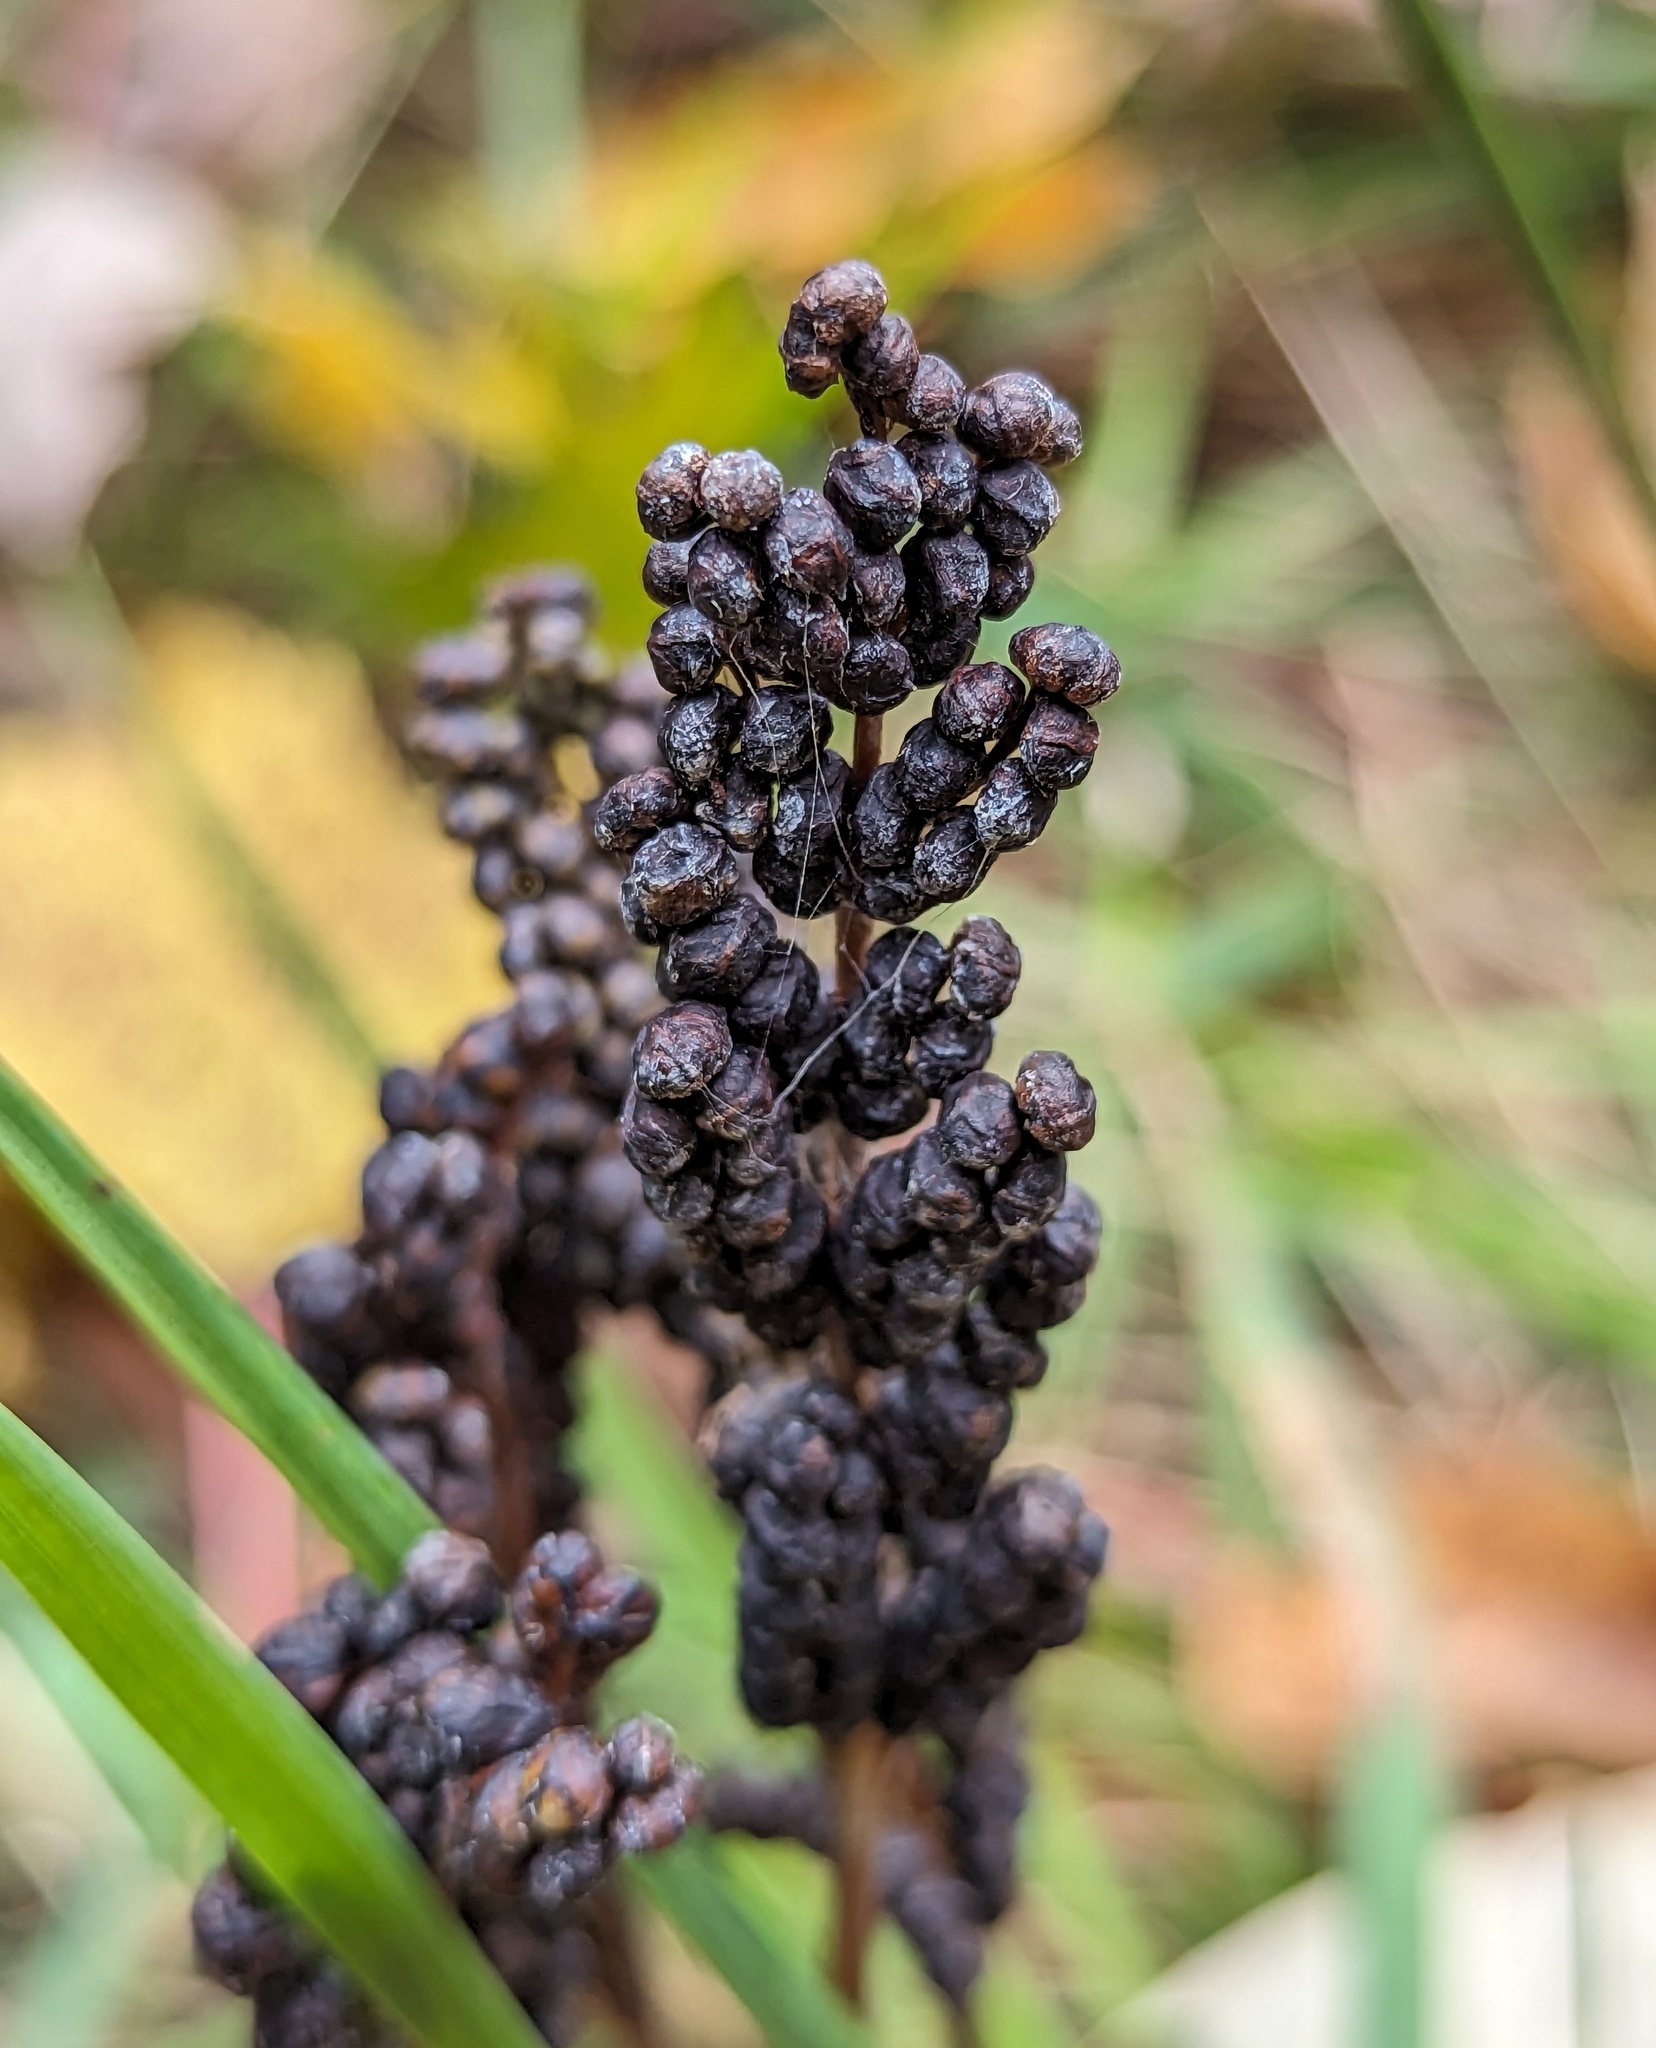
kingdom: Plantae
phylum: Tracheophyta
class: Polypodiopsida
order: Polypodiales
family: Onocleaceae
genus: Onoclea
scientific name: Onoclea sensibilis
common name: Sensitive fern
